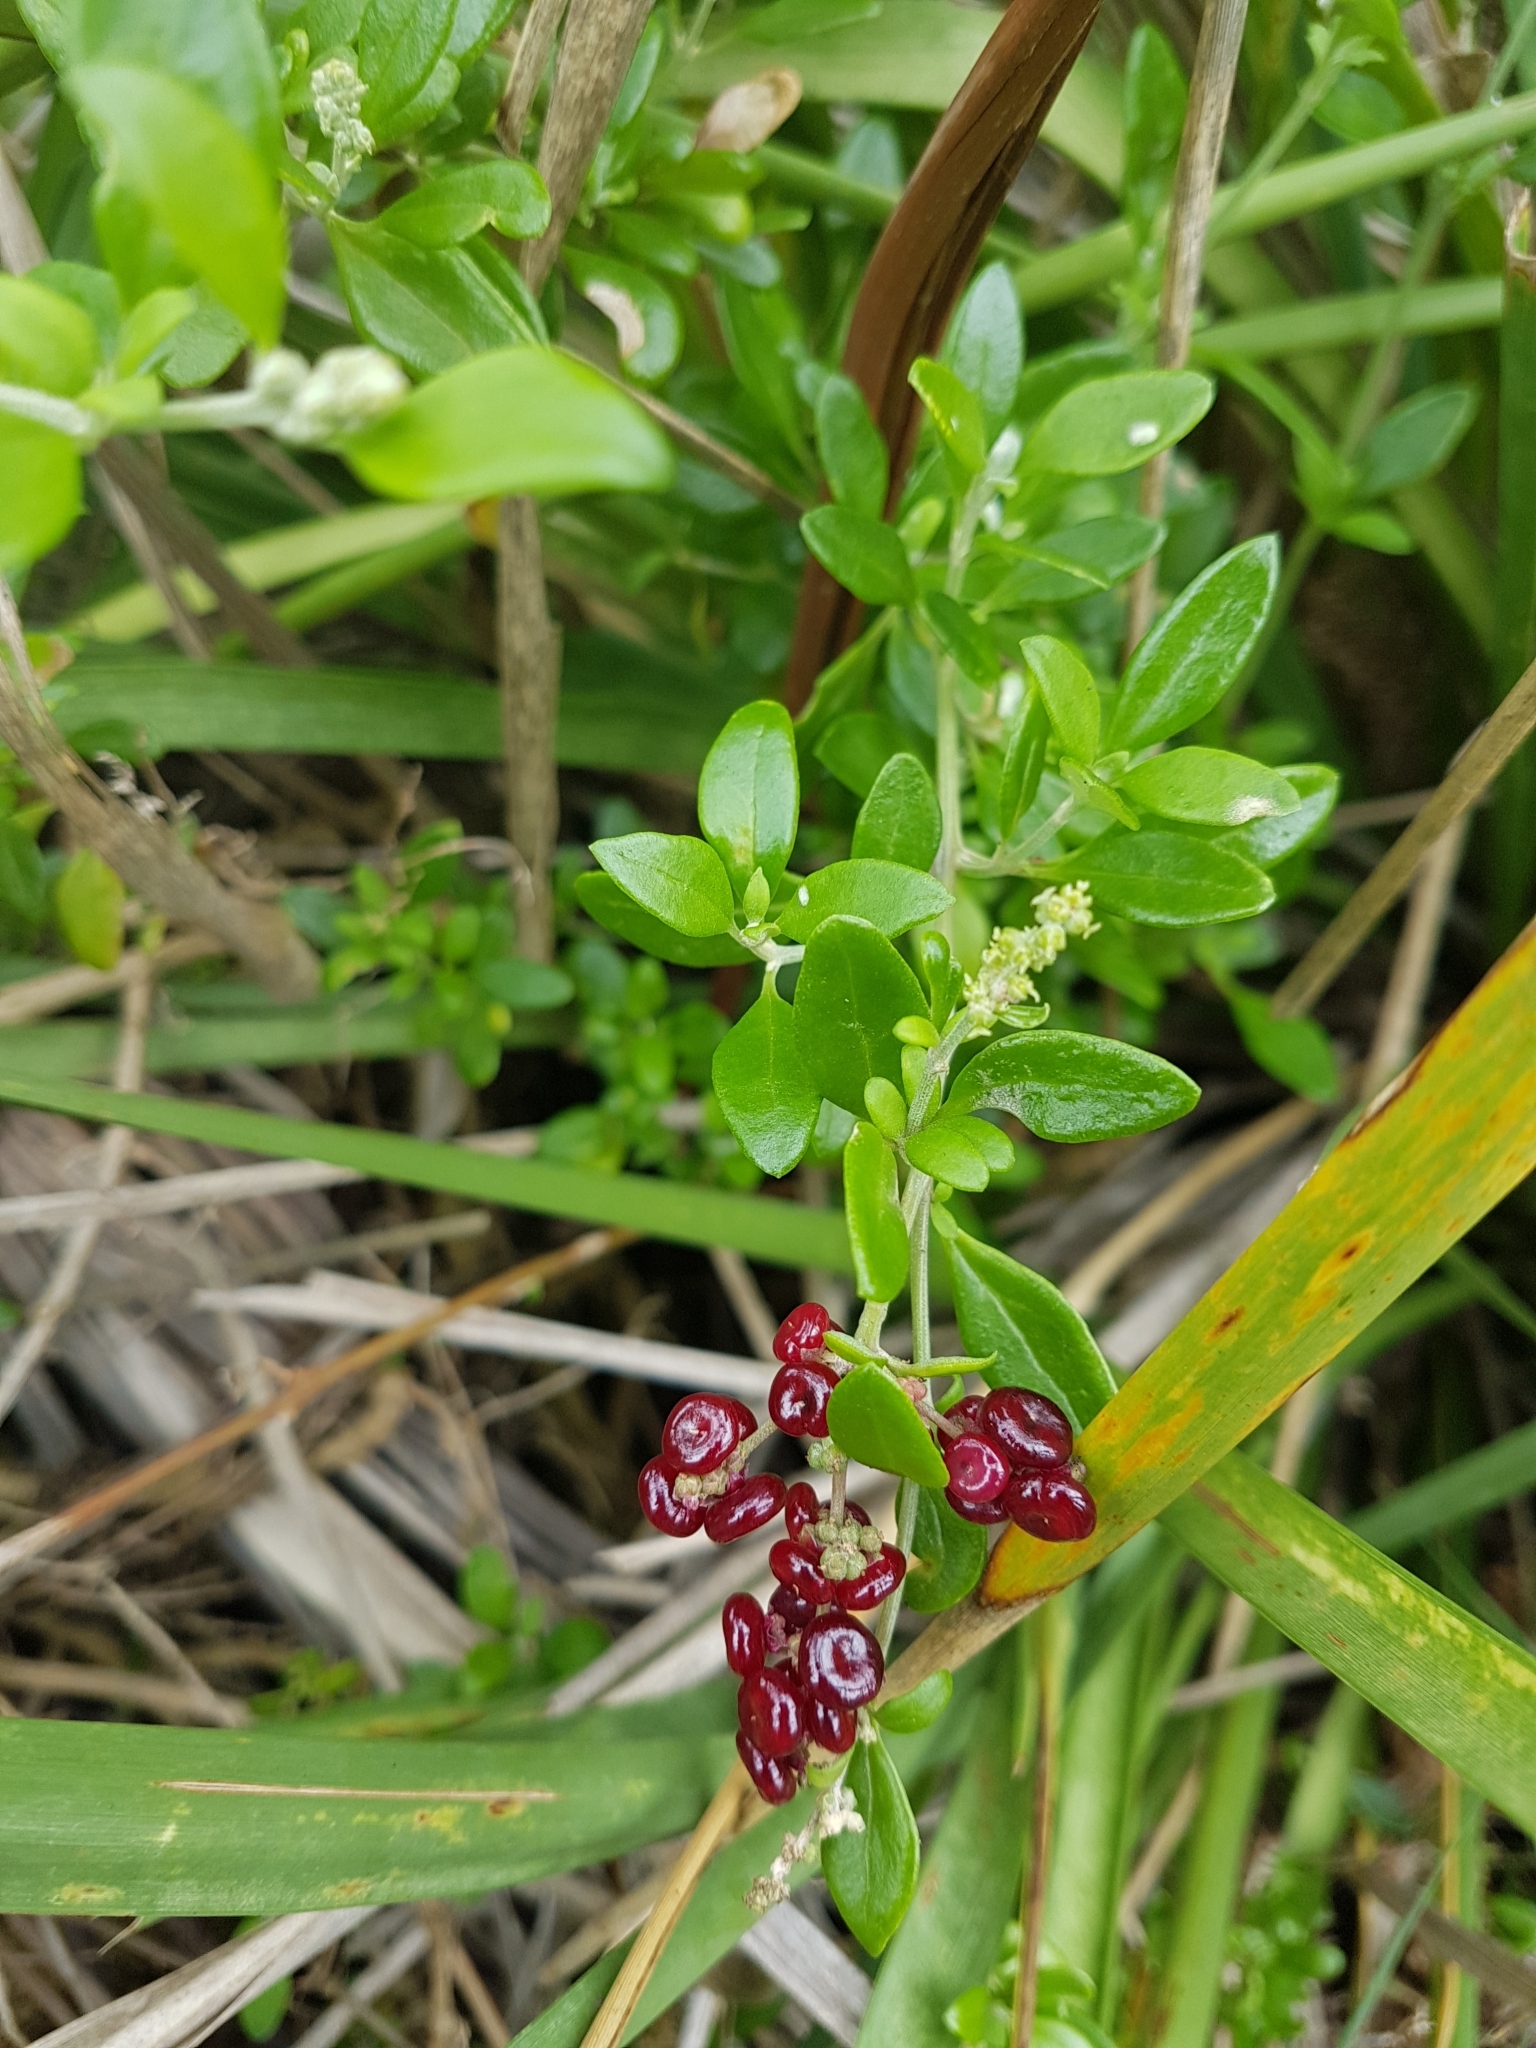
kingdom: Plantae
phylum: Tracheophyta
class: Magnoliopsida
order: Caryophyllales
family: Amaranthaceae
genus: Chenopodium
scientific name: Chenopodium candolleanum
